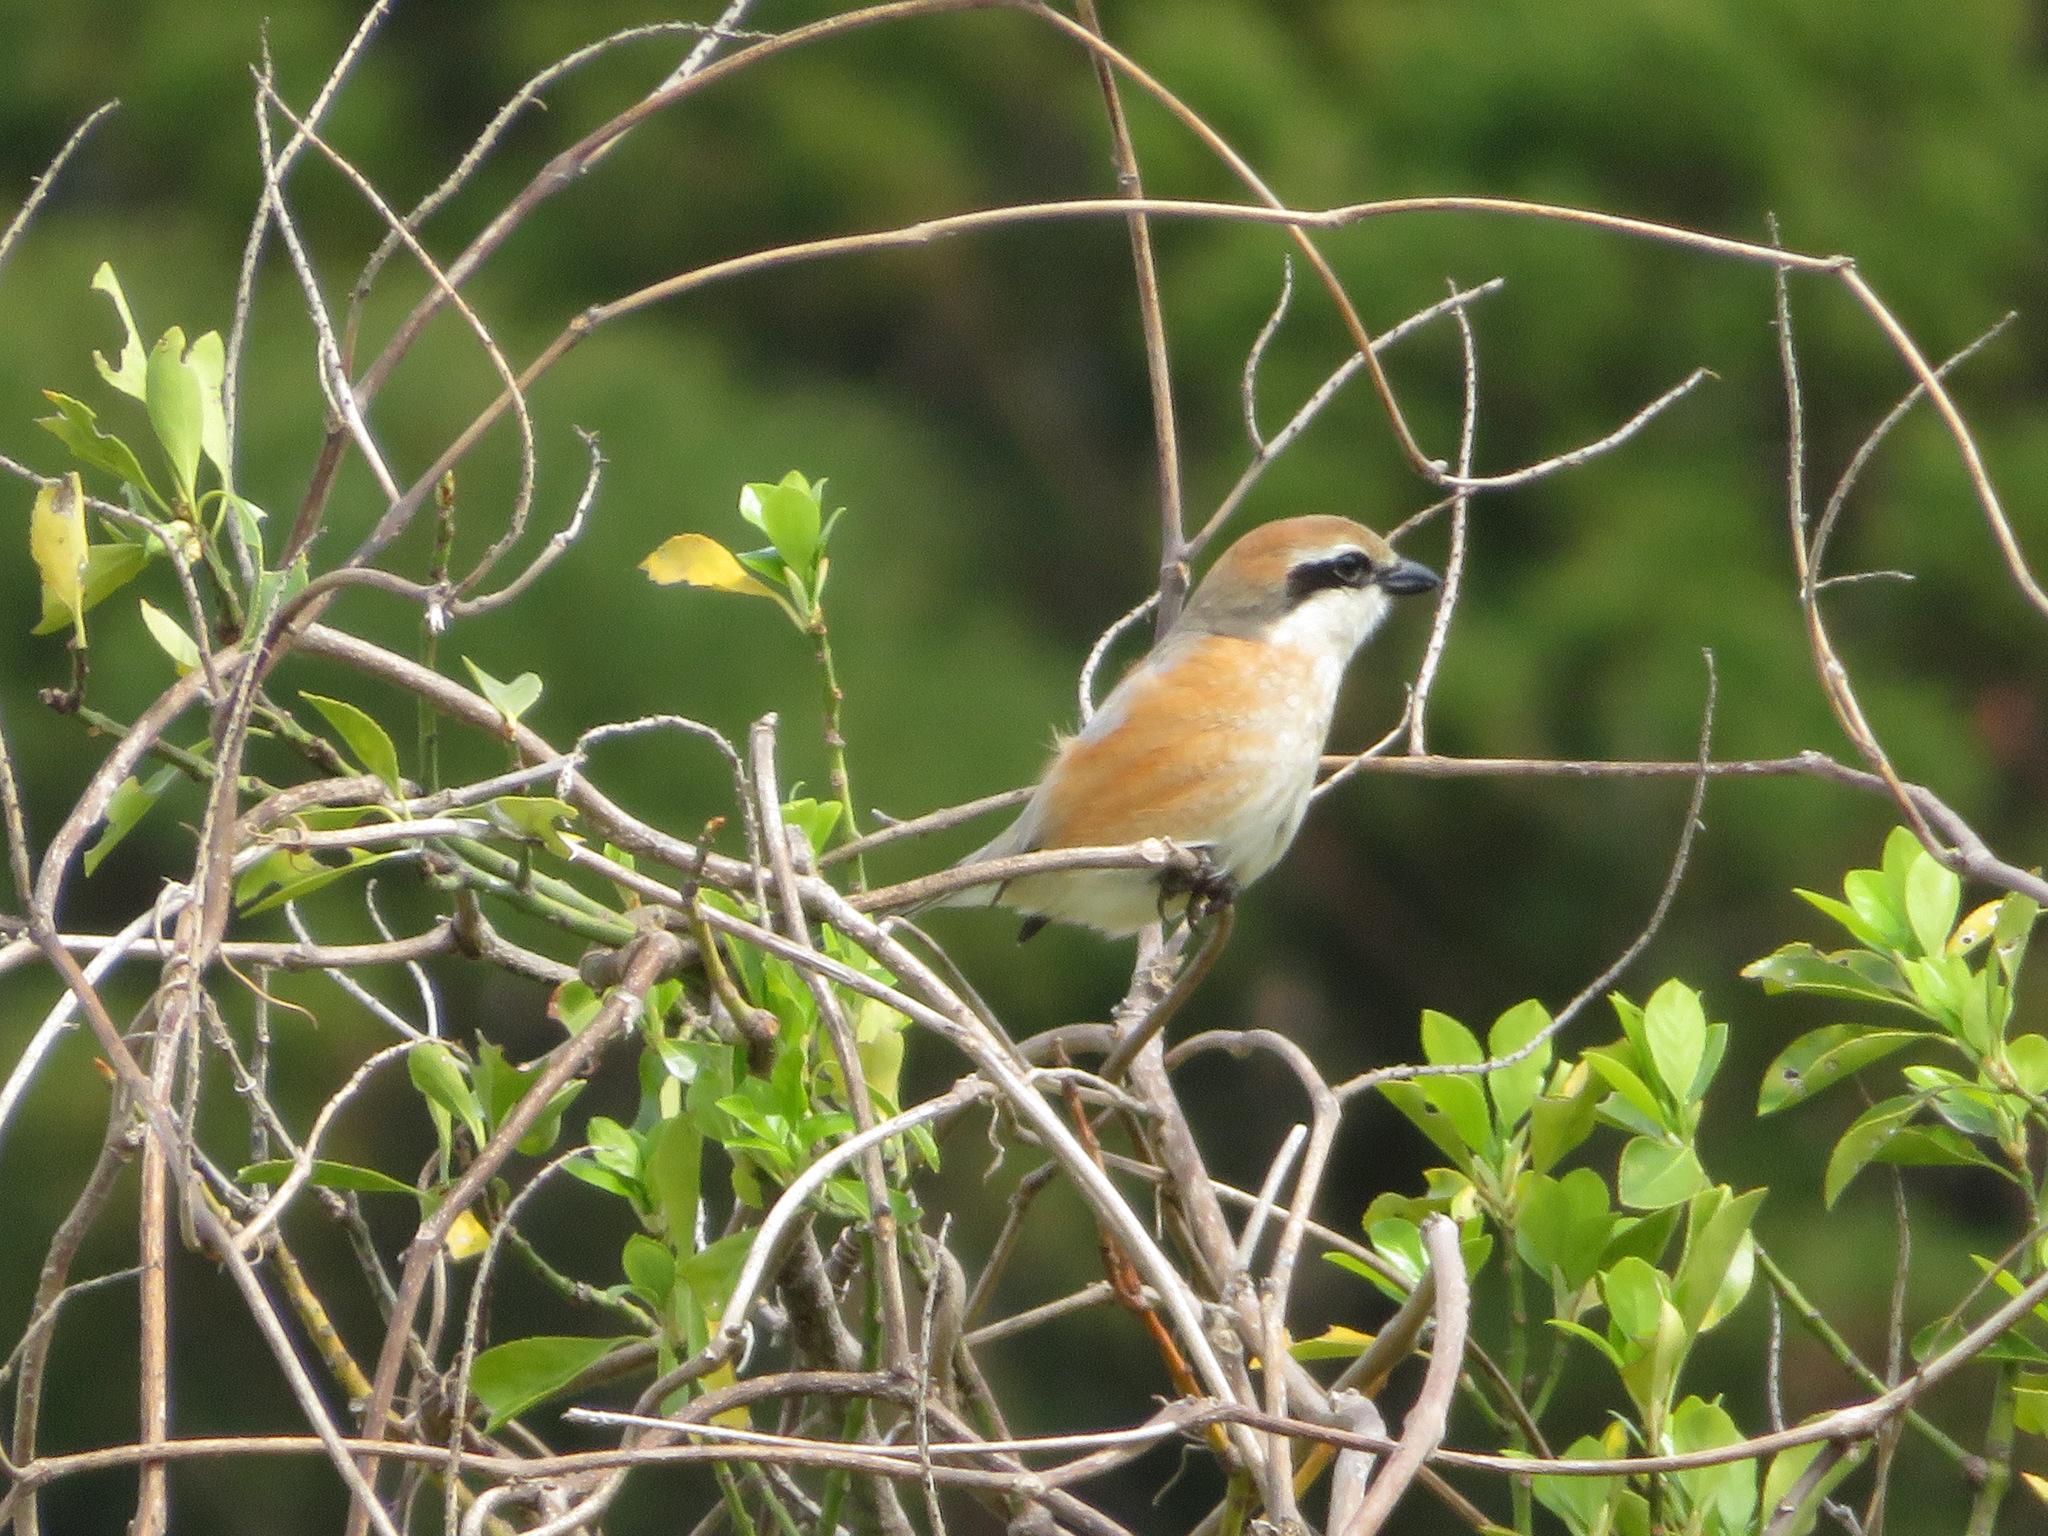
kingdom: Animalia
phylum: Chordata
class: Aves
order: Passeriformes
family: Laniidae
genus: Lanius
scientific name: Lanius bucephalus
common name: Bull-headed shrike
